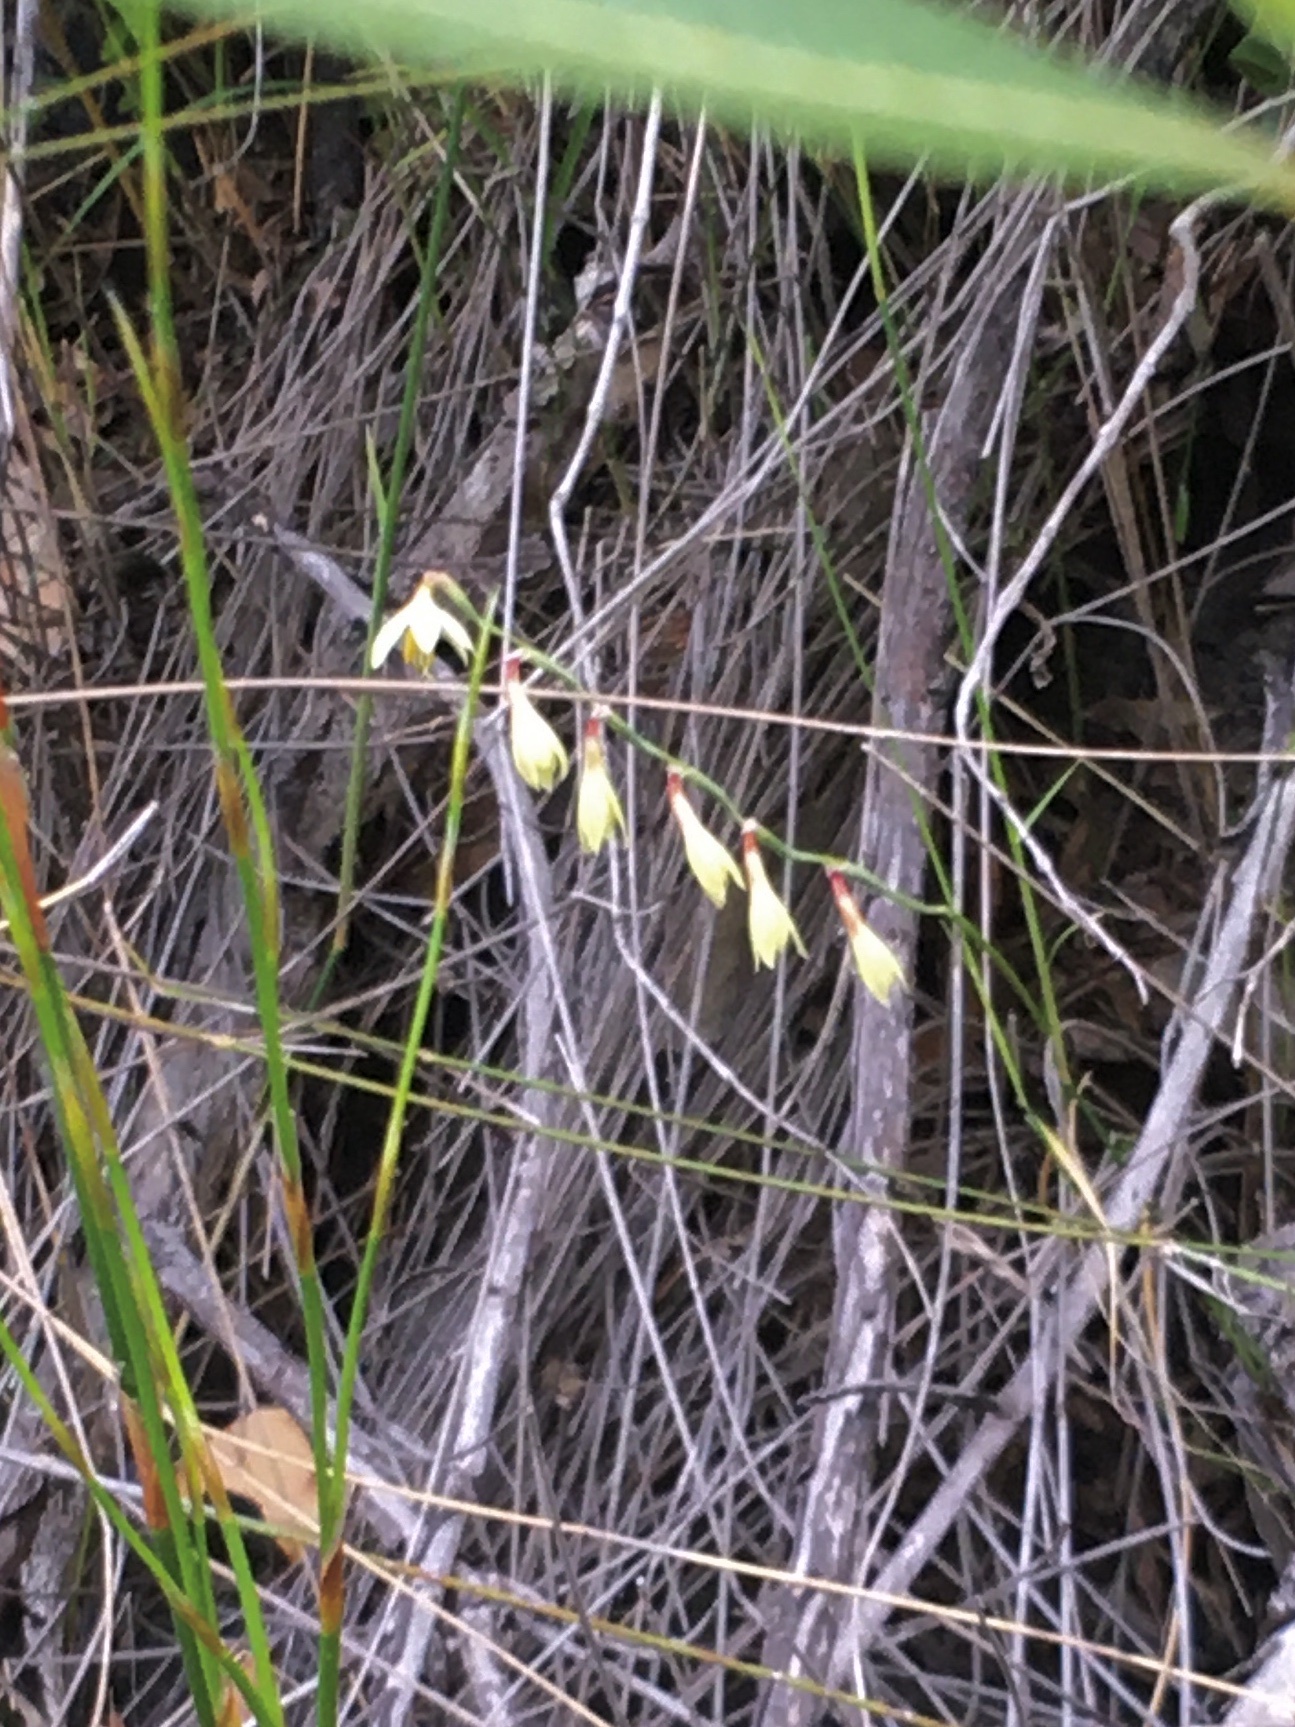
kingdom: Plantae
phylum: Tracheophyta
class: Liliopsida
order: Asparagales
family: Iridaceae
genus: Hesperantha
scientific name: Hesperantha radiata
